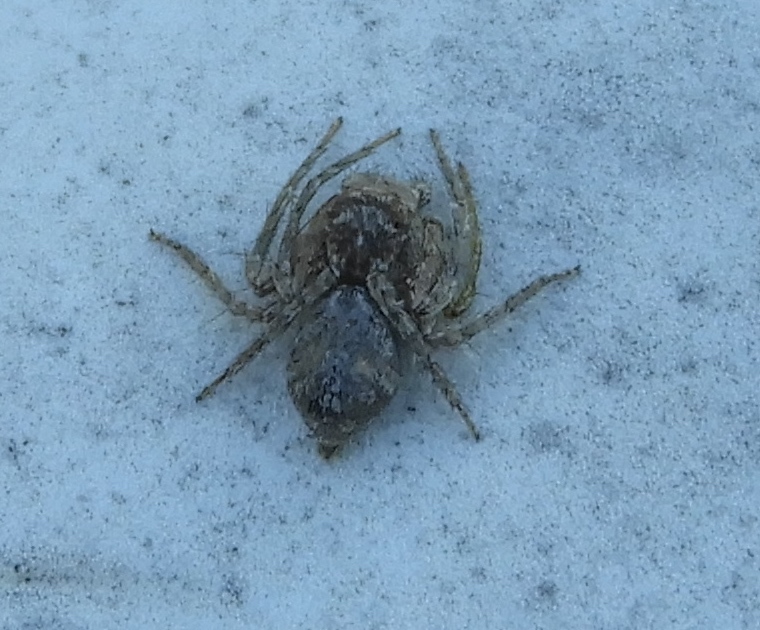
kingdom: Animalia
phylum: Arthropoda
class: Arachnida
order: Araneae
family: Oxyopidae
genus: Hamataliwa
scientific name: Hamataliwa
